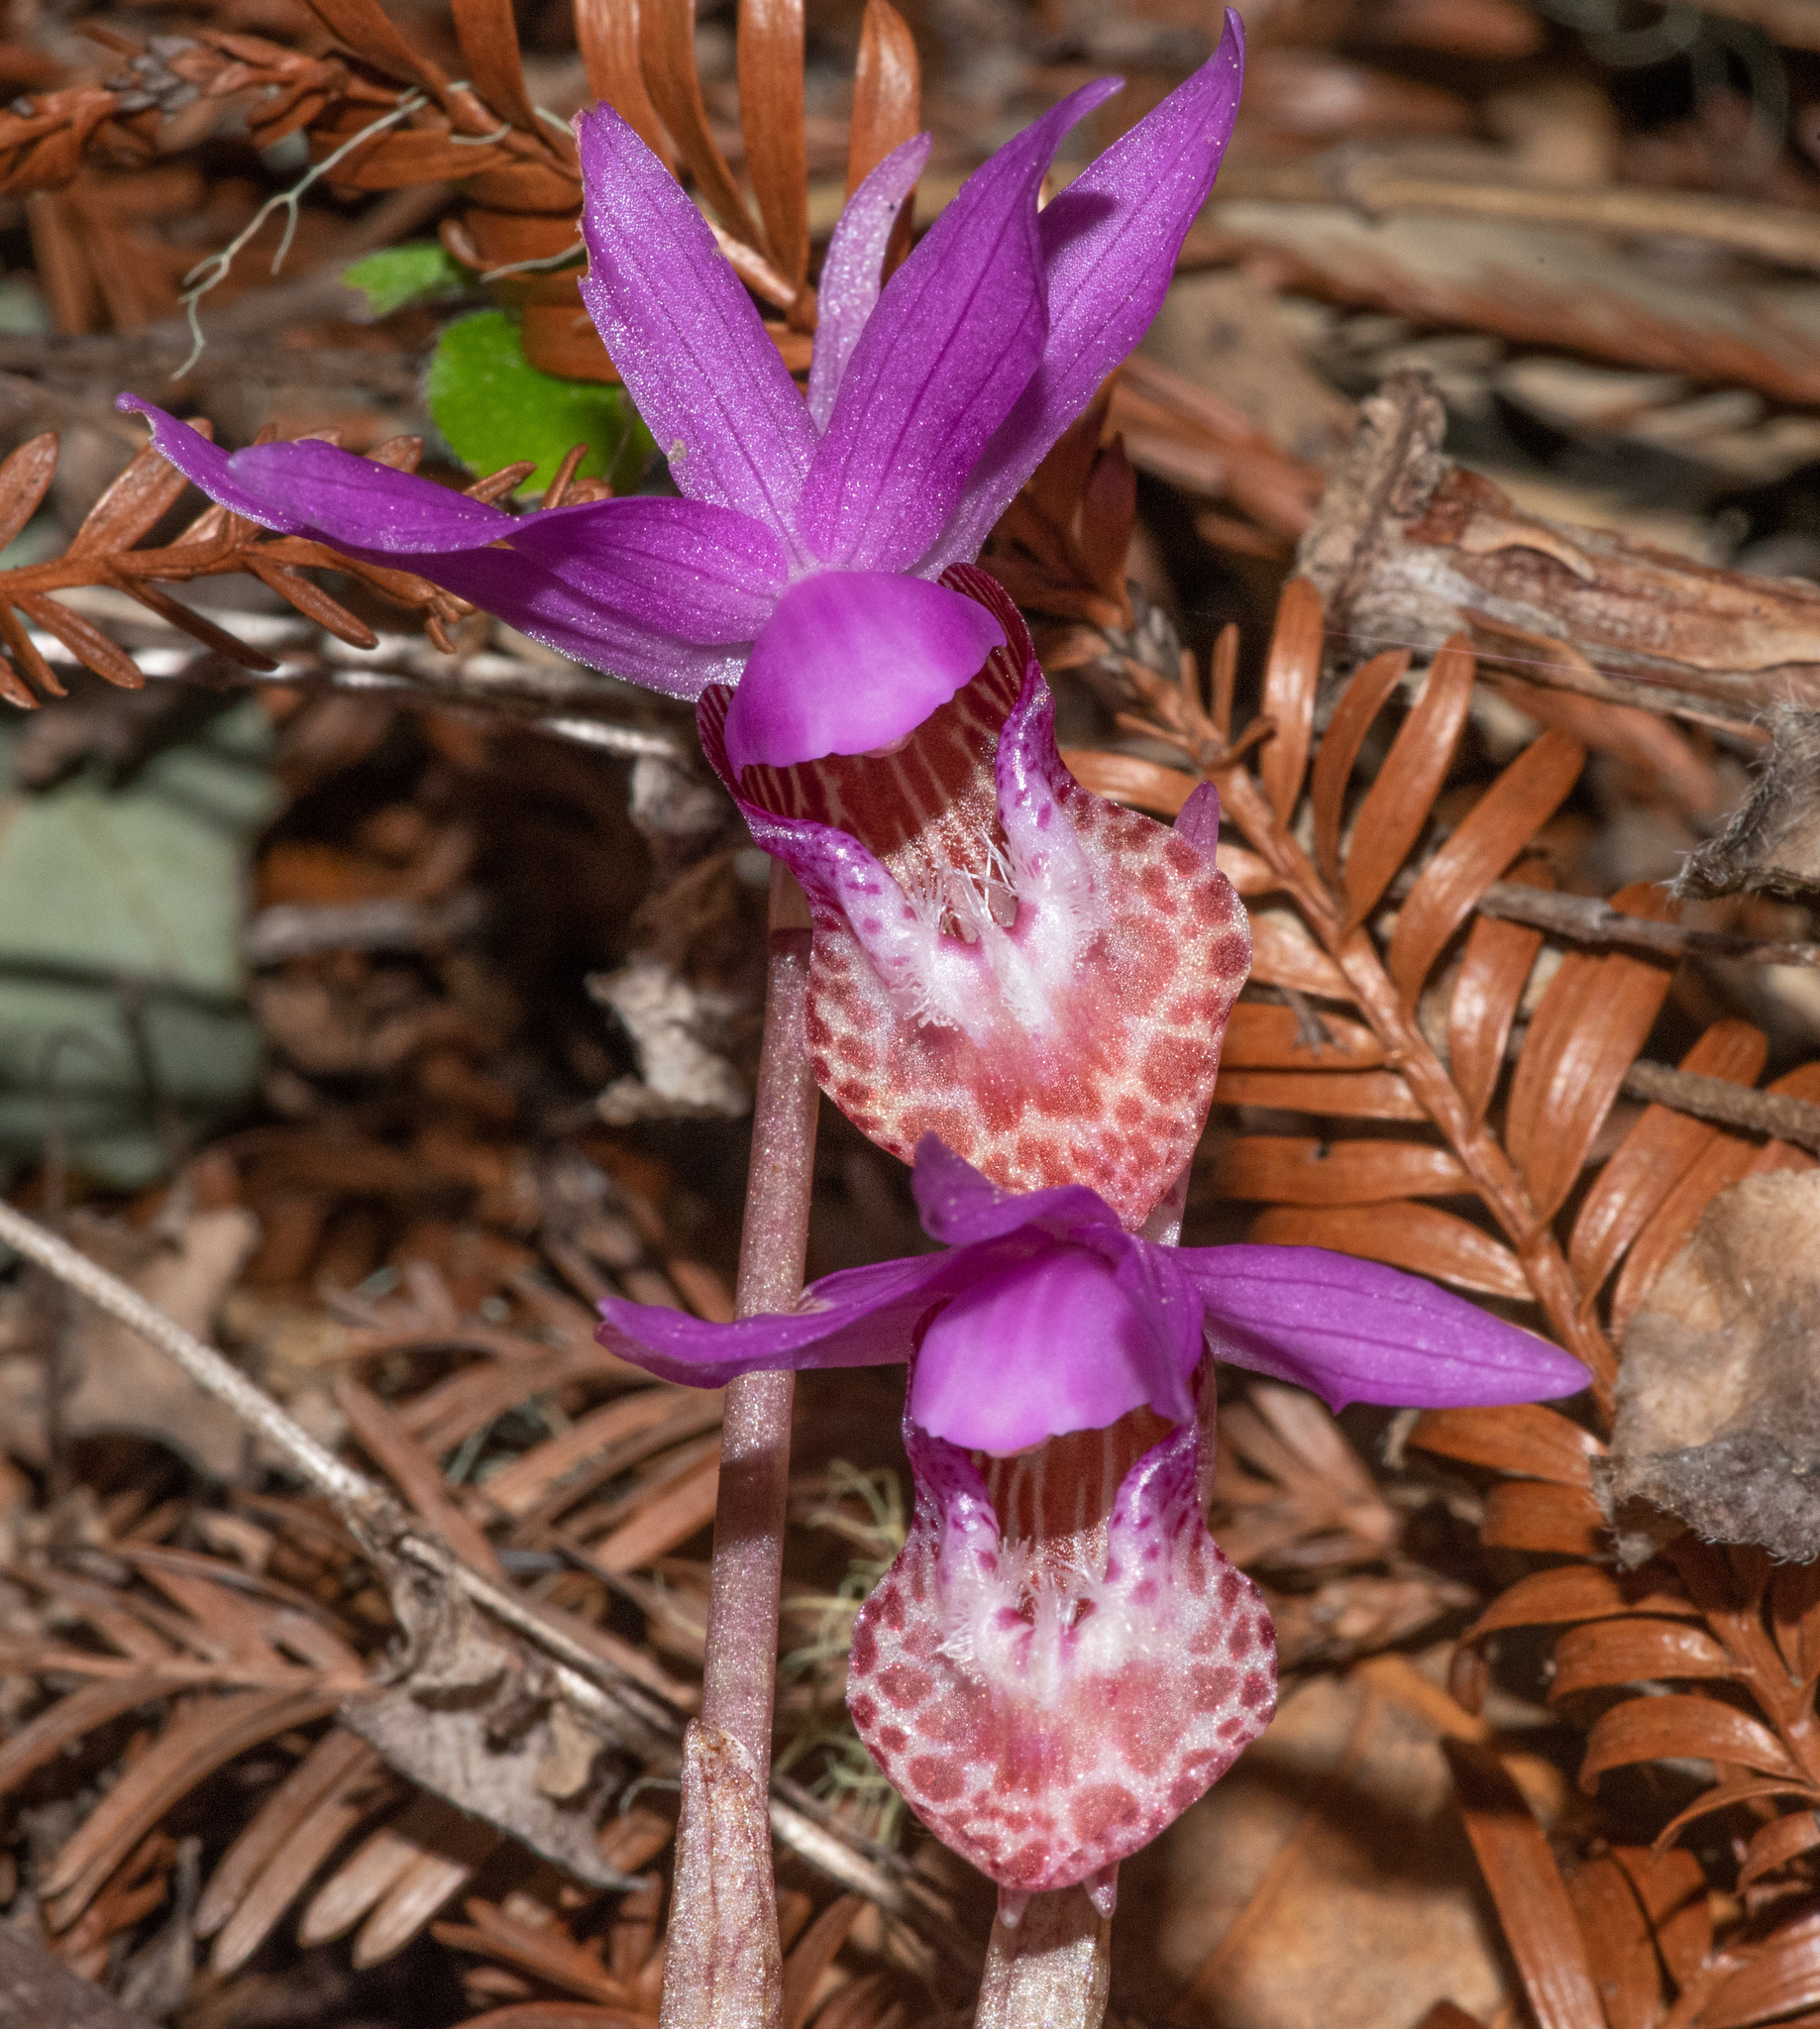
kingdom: Plantae
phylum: Tracheophyta
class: Liliopsida
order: Asparagales
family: Orchidaceae
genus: Calypso
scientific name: Calypso bulbosa
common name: Calypso
